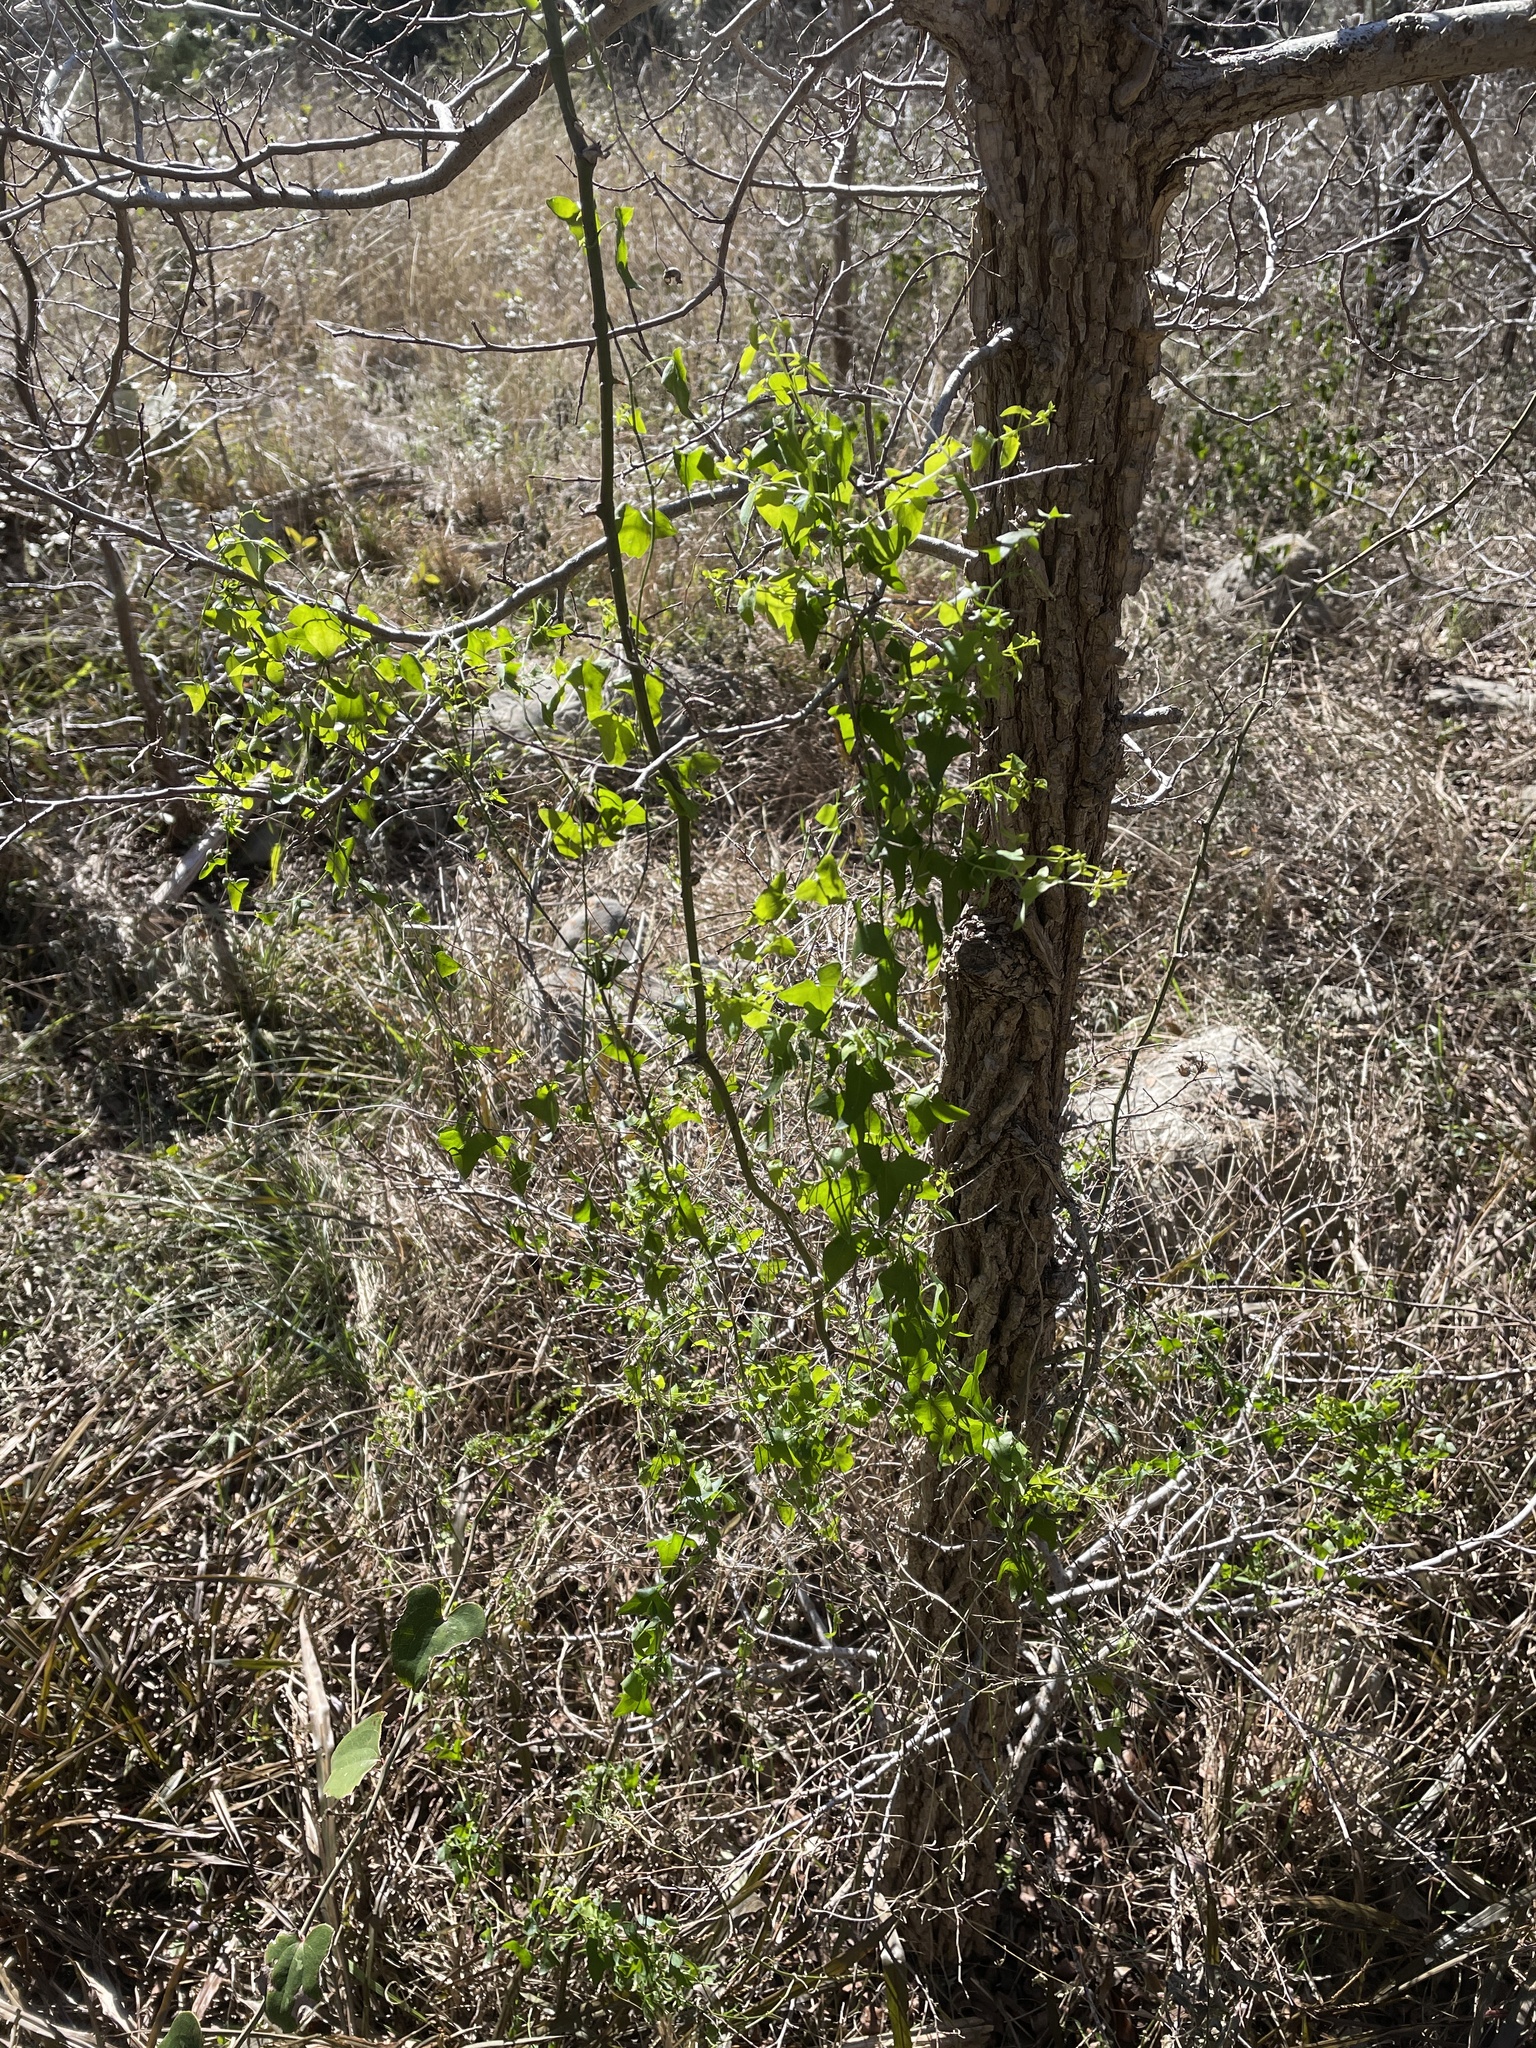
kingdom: Plantae
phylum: Tracheophyta
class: Magnoliopsida
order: Lamiales
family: Plantaginaceae
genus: Maurandella
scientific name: Maurandella antirrhiniflora
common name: Violet twining-snapdragon
